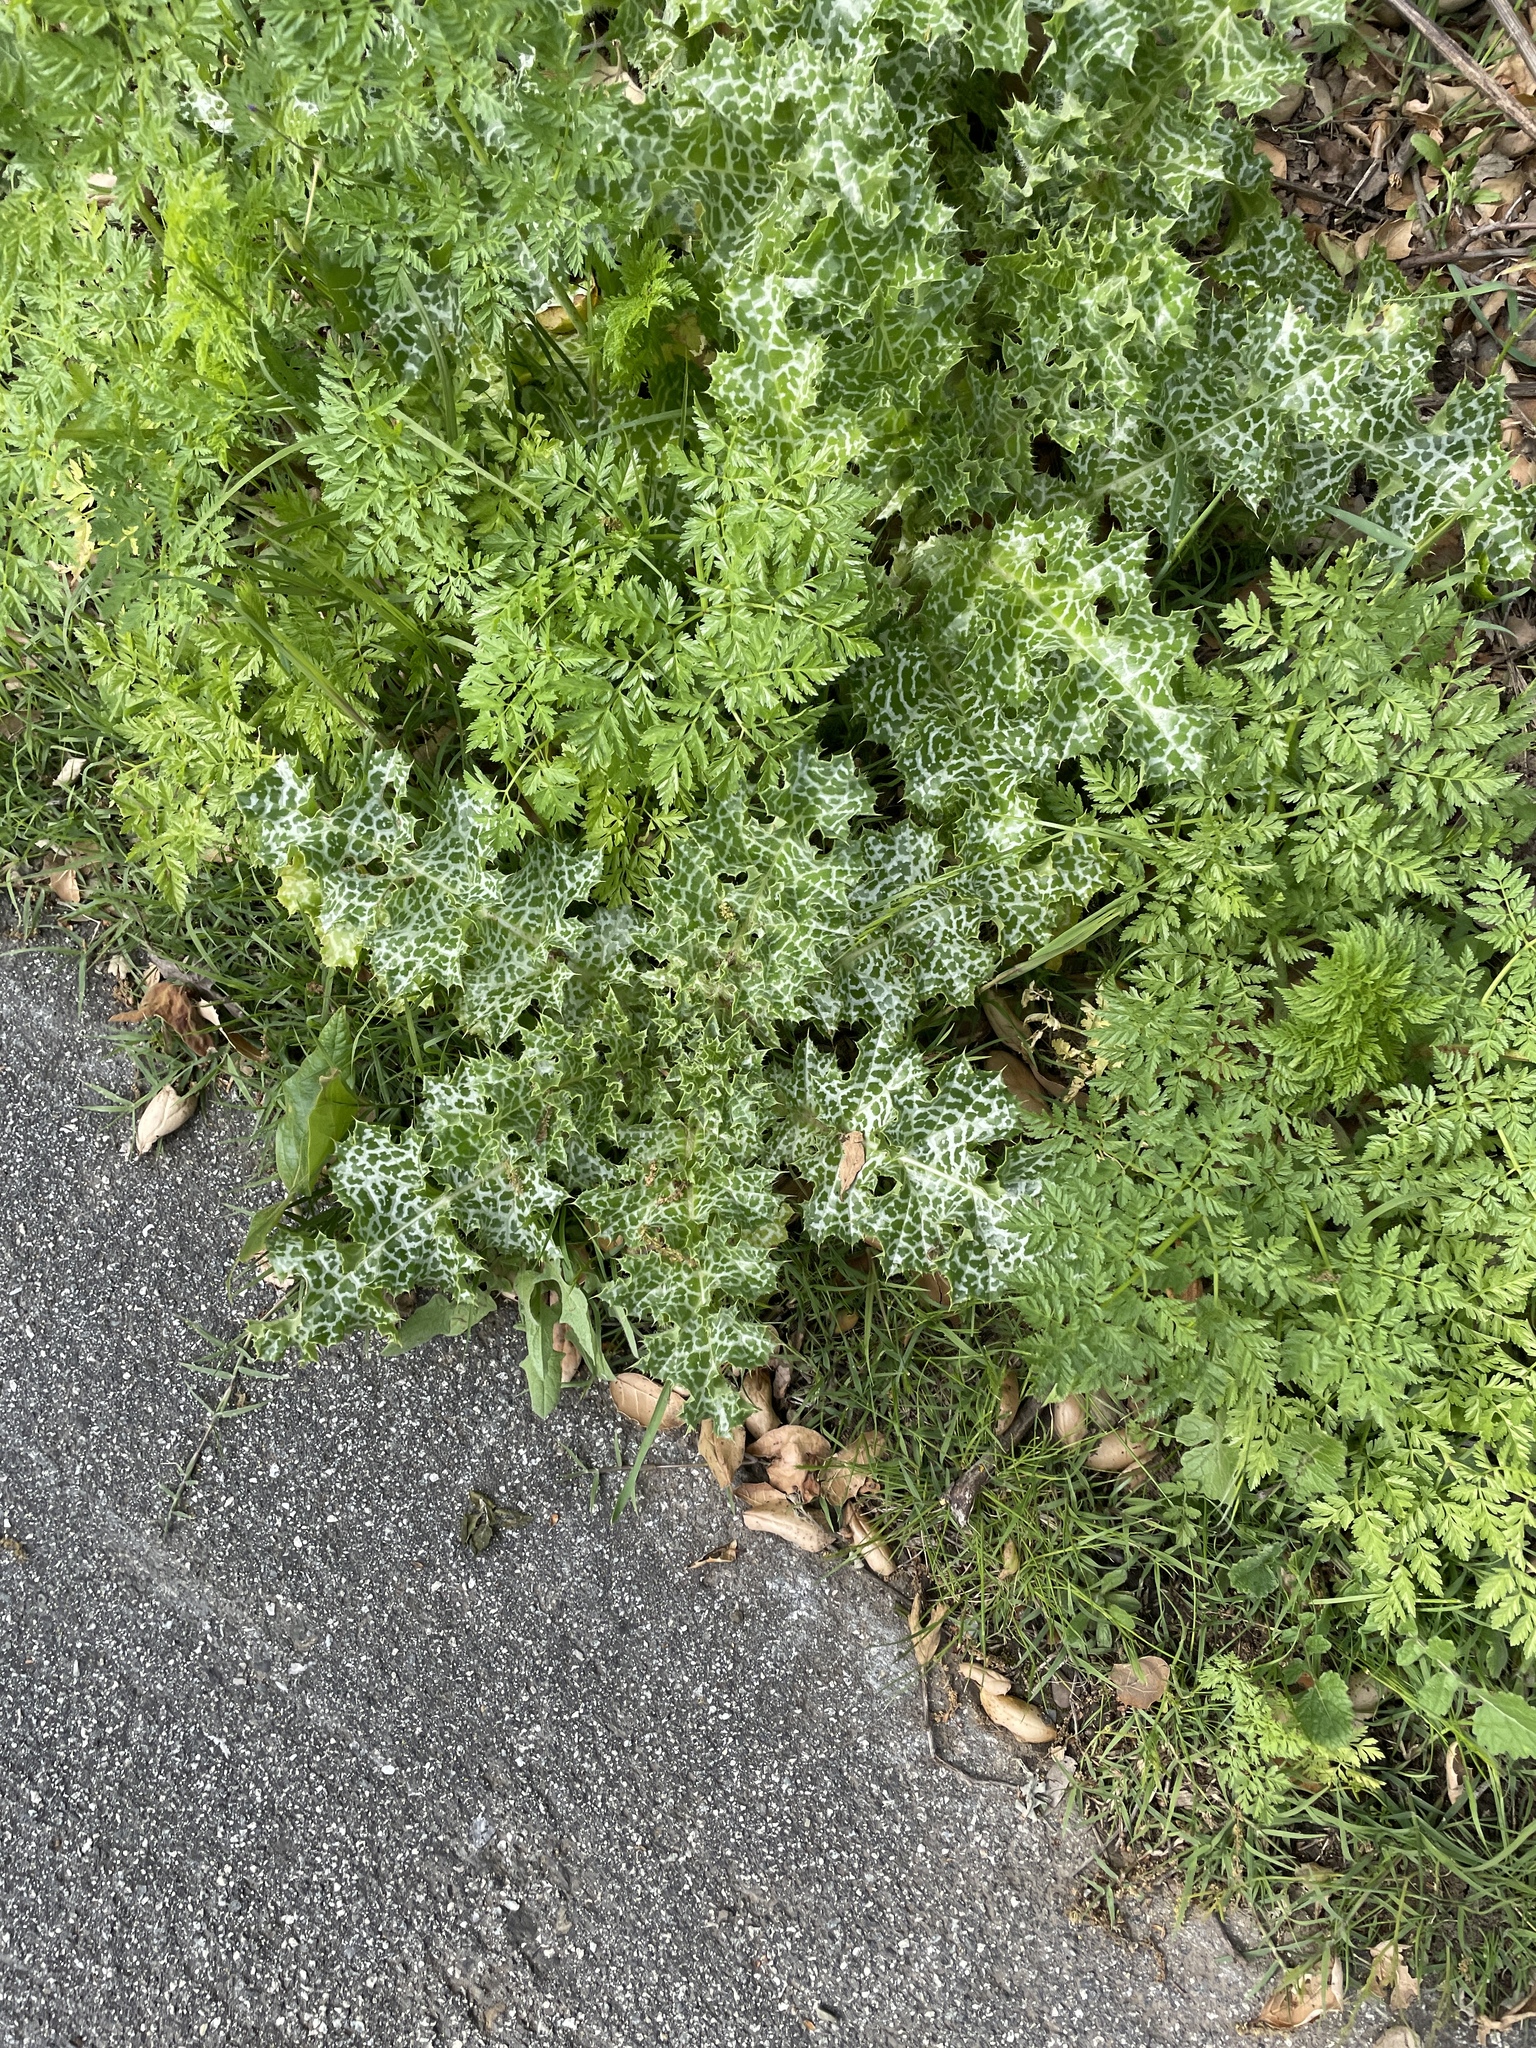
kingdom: Plantae
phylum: Tracheophyta
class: Magnoliopsida
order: Asterales
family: Asteraceae
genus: Silybum
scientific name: Silybum marianum
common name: Milk thistle
